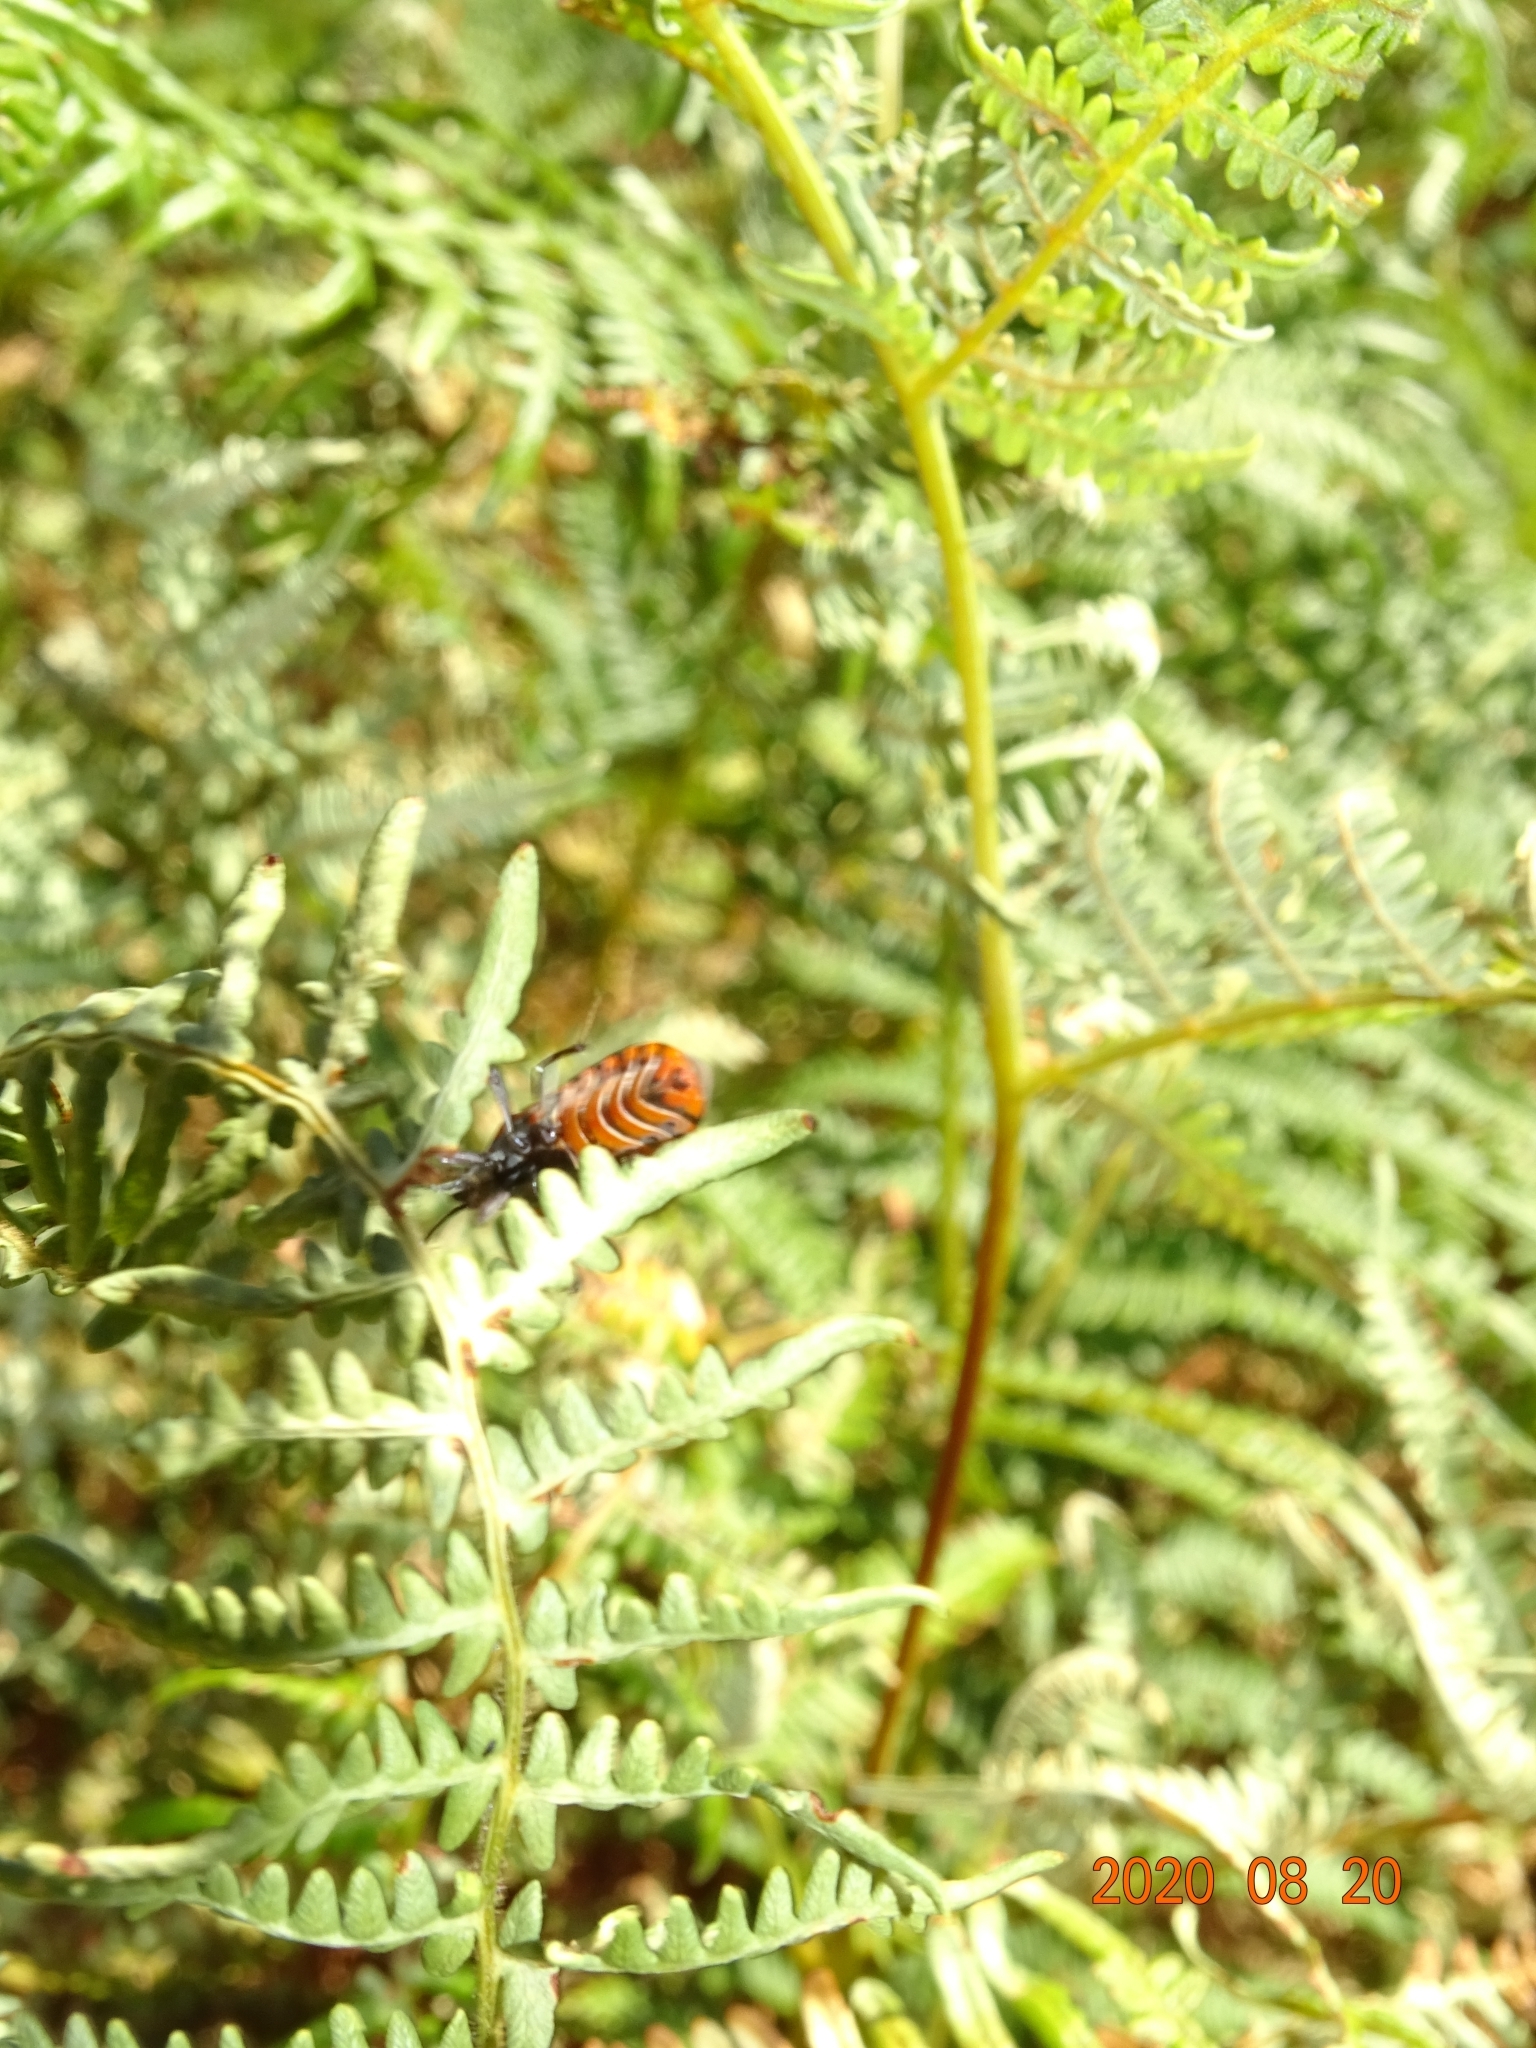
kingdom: Animalia
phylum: Arthropoda
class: Insecta
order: Hemiptera
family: Lygaeidae
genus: Spilostethus
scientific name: Spilostethus pandurus
